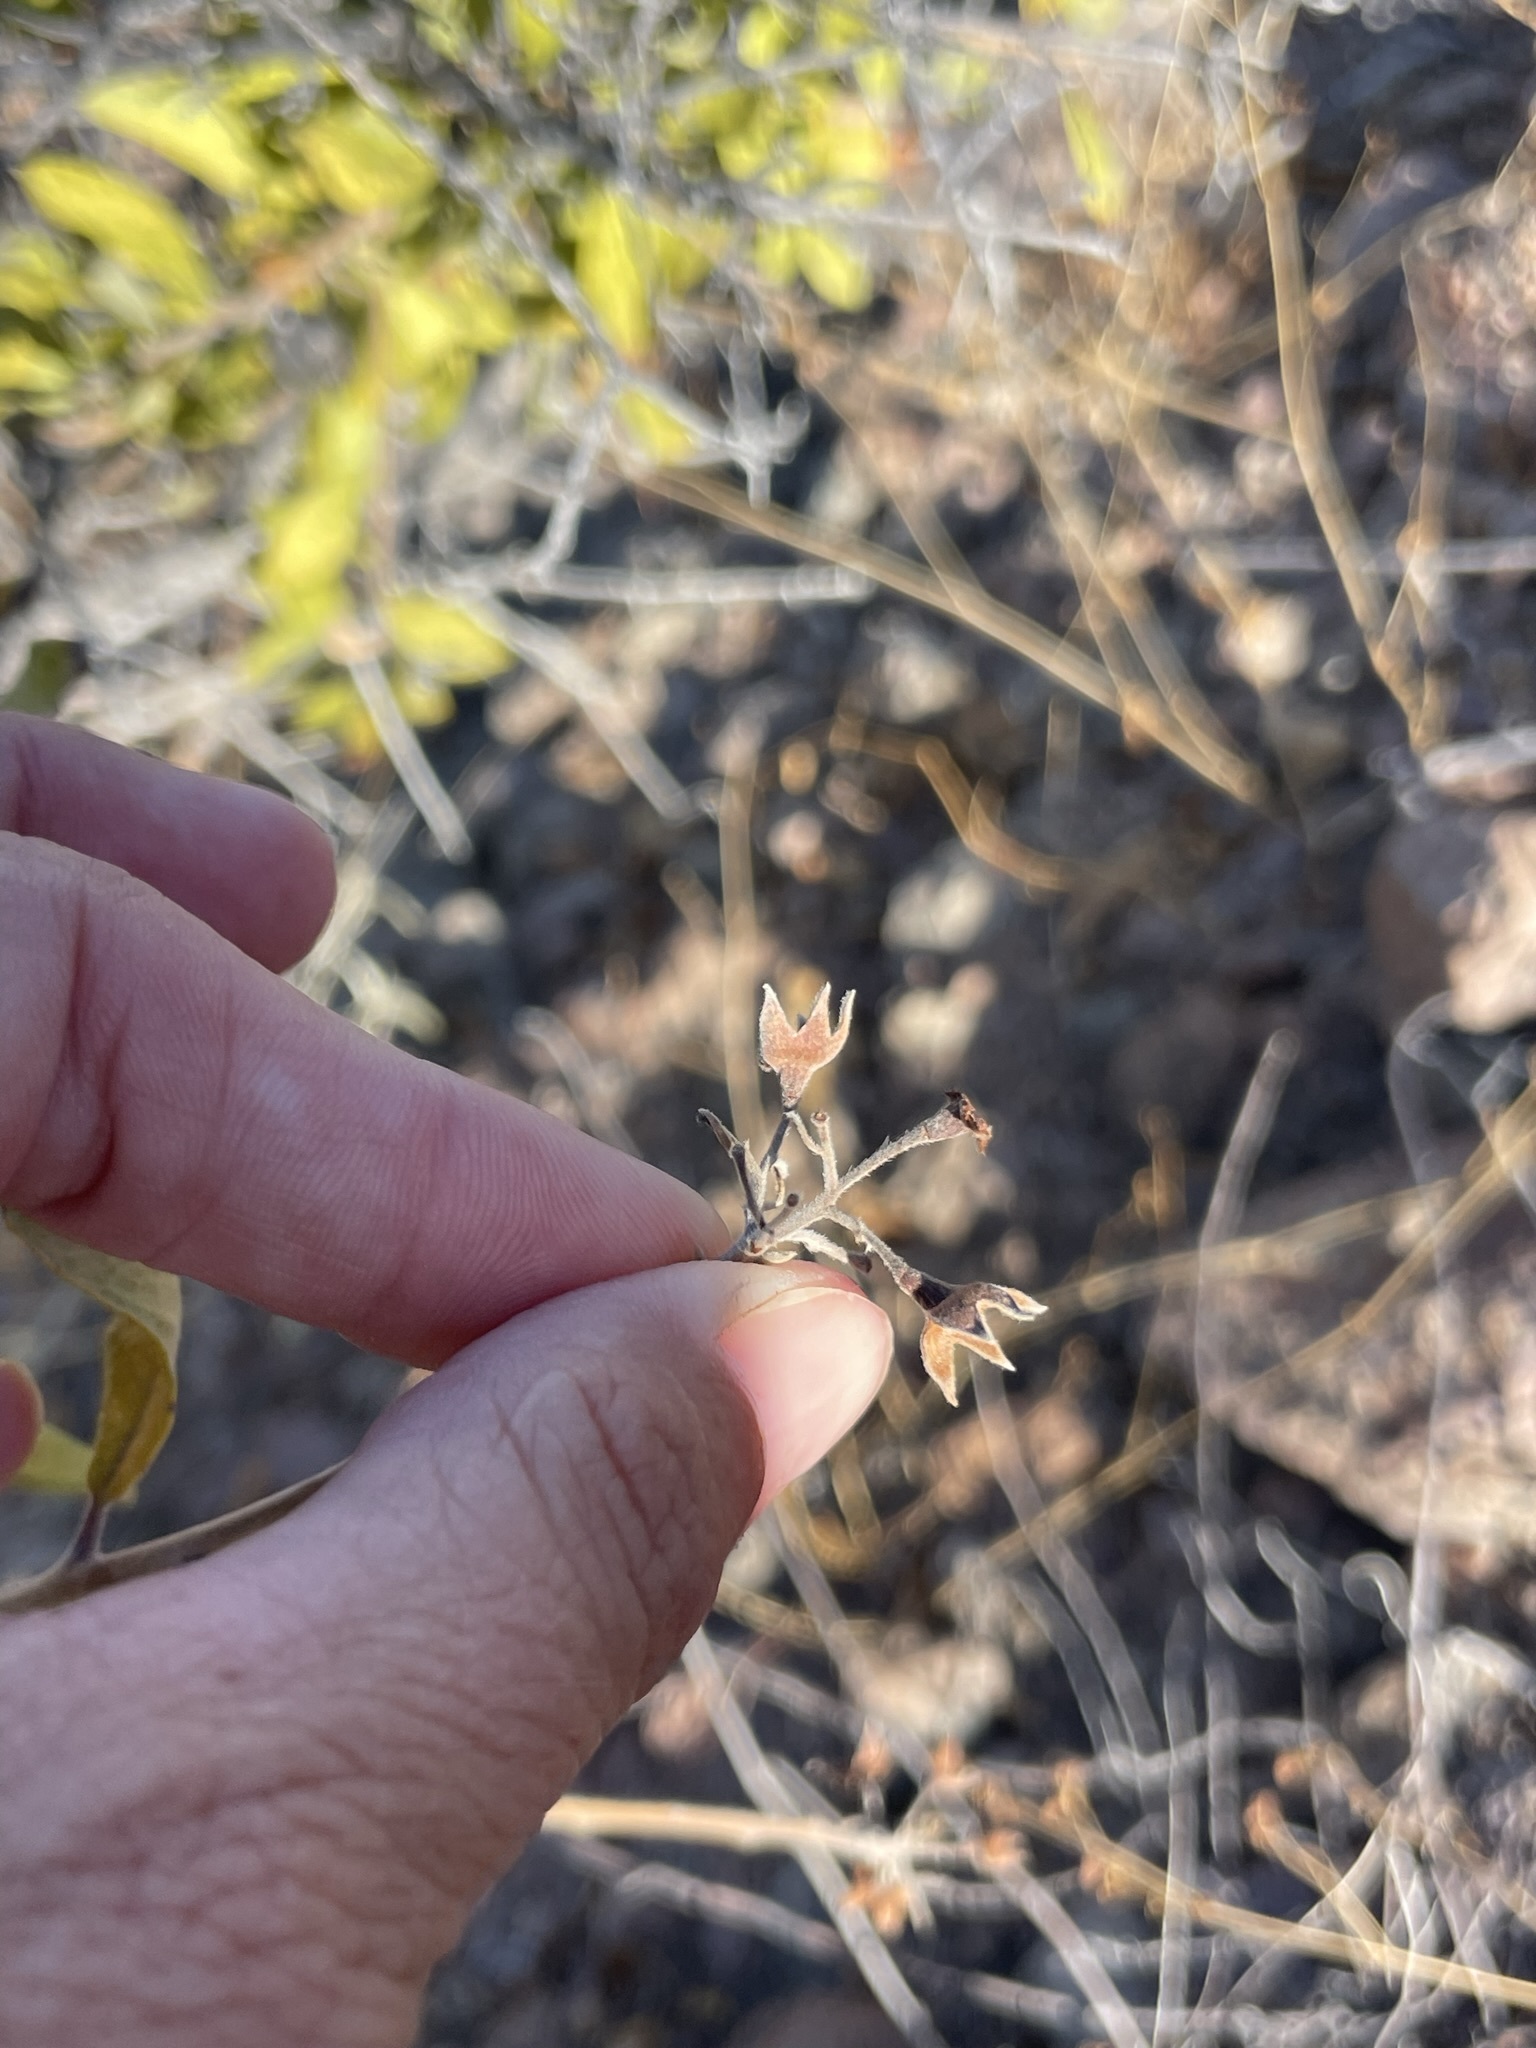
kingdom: Plantae
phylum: Tracheophyta
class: Magnoliopsida
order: Boraginales
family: Ehretiaceae
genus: Bourreria
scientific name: Bourreria sonorae
